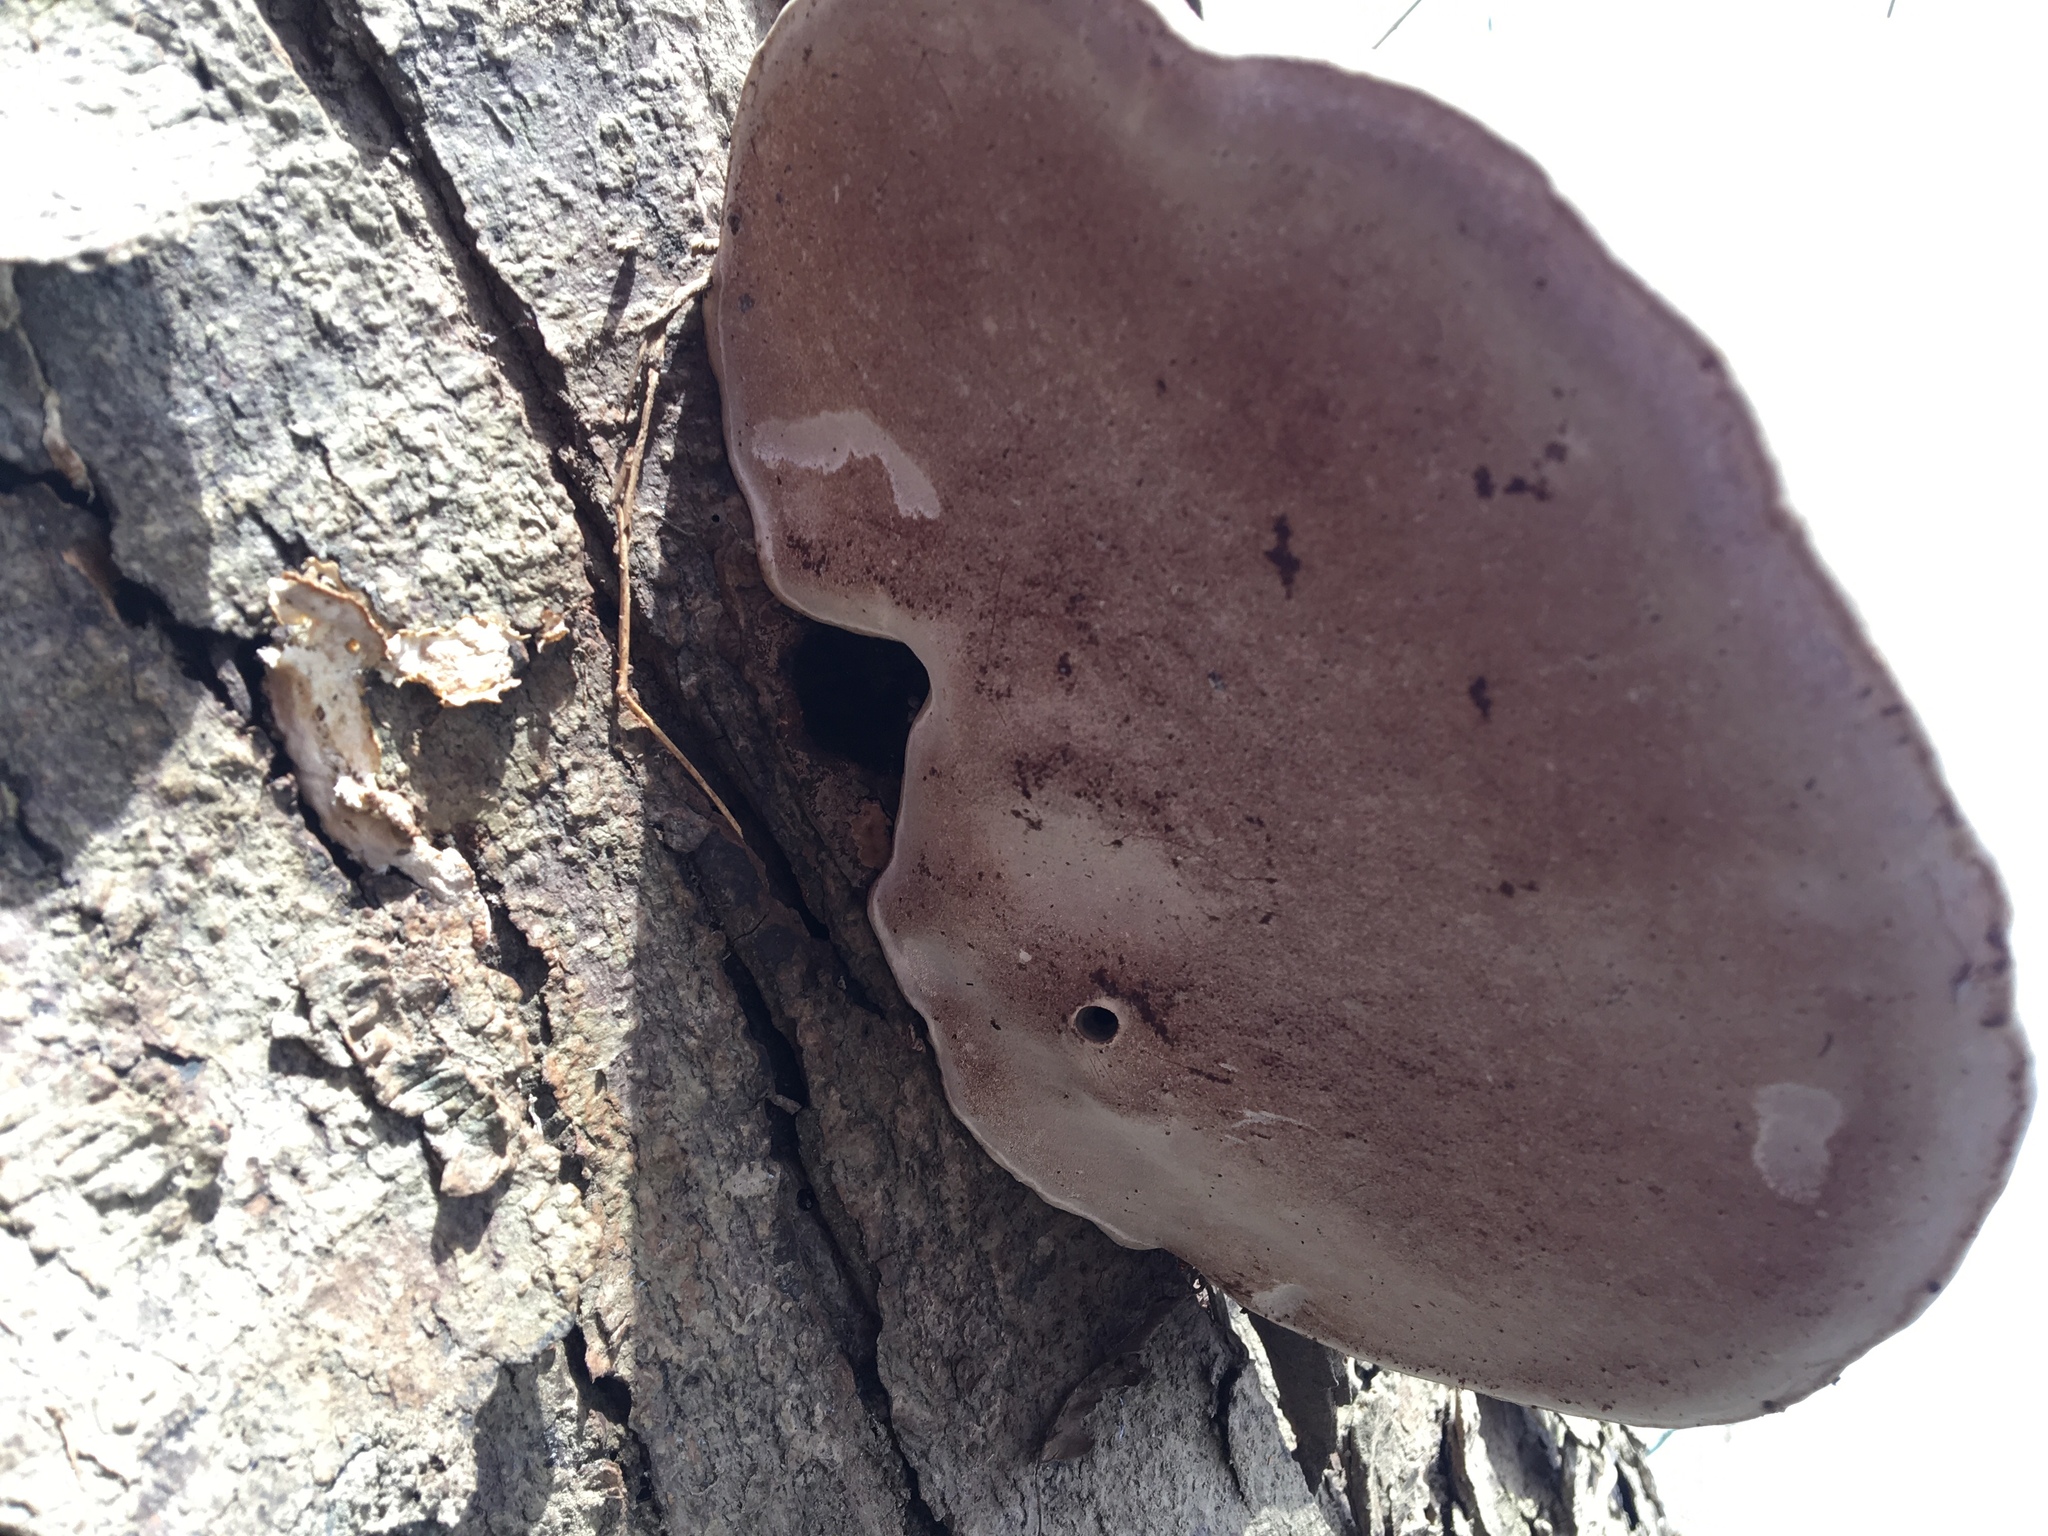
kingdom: Fungi
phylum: Basidiomycota
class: Agaricomycetes
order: Polyporales
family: Polyporaceae
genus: Ganoderma
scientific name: Ganoderma applanatum
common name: Artist's bracket
